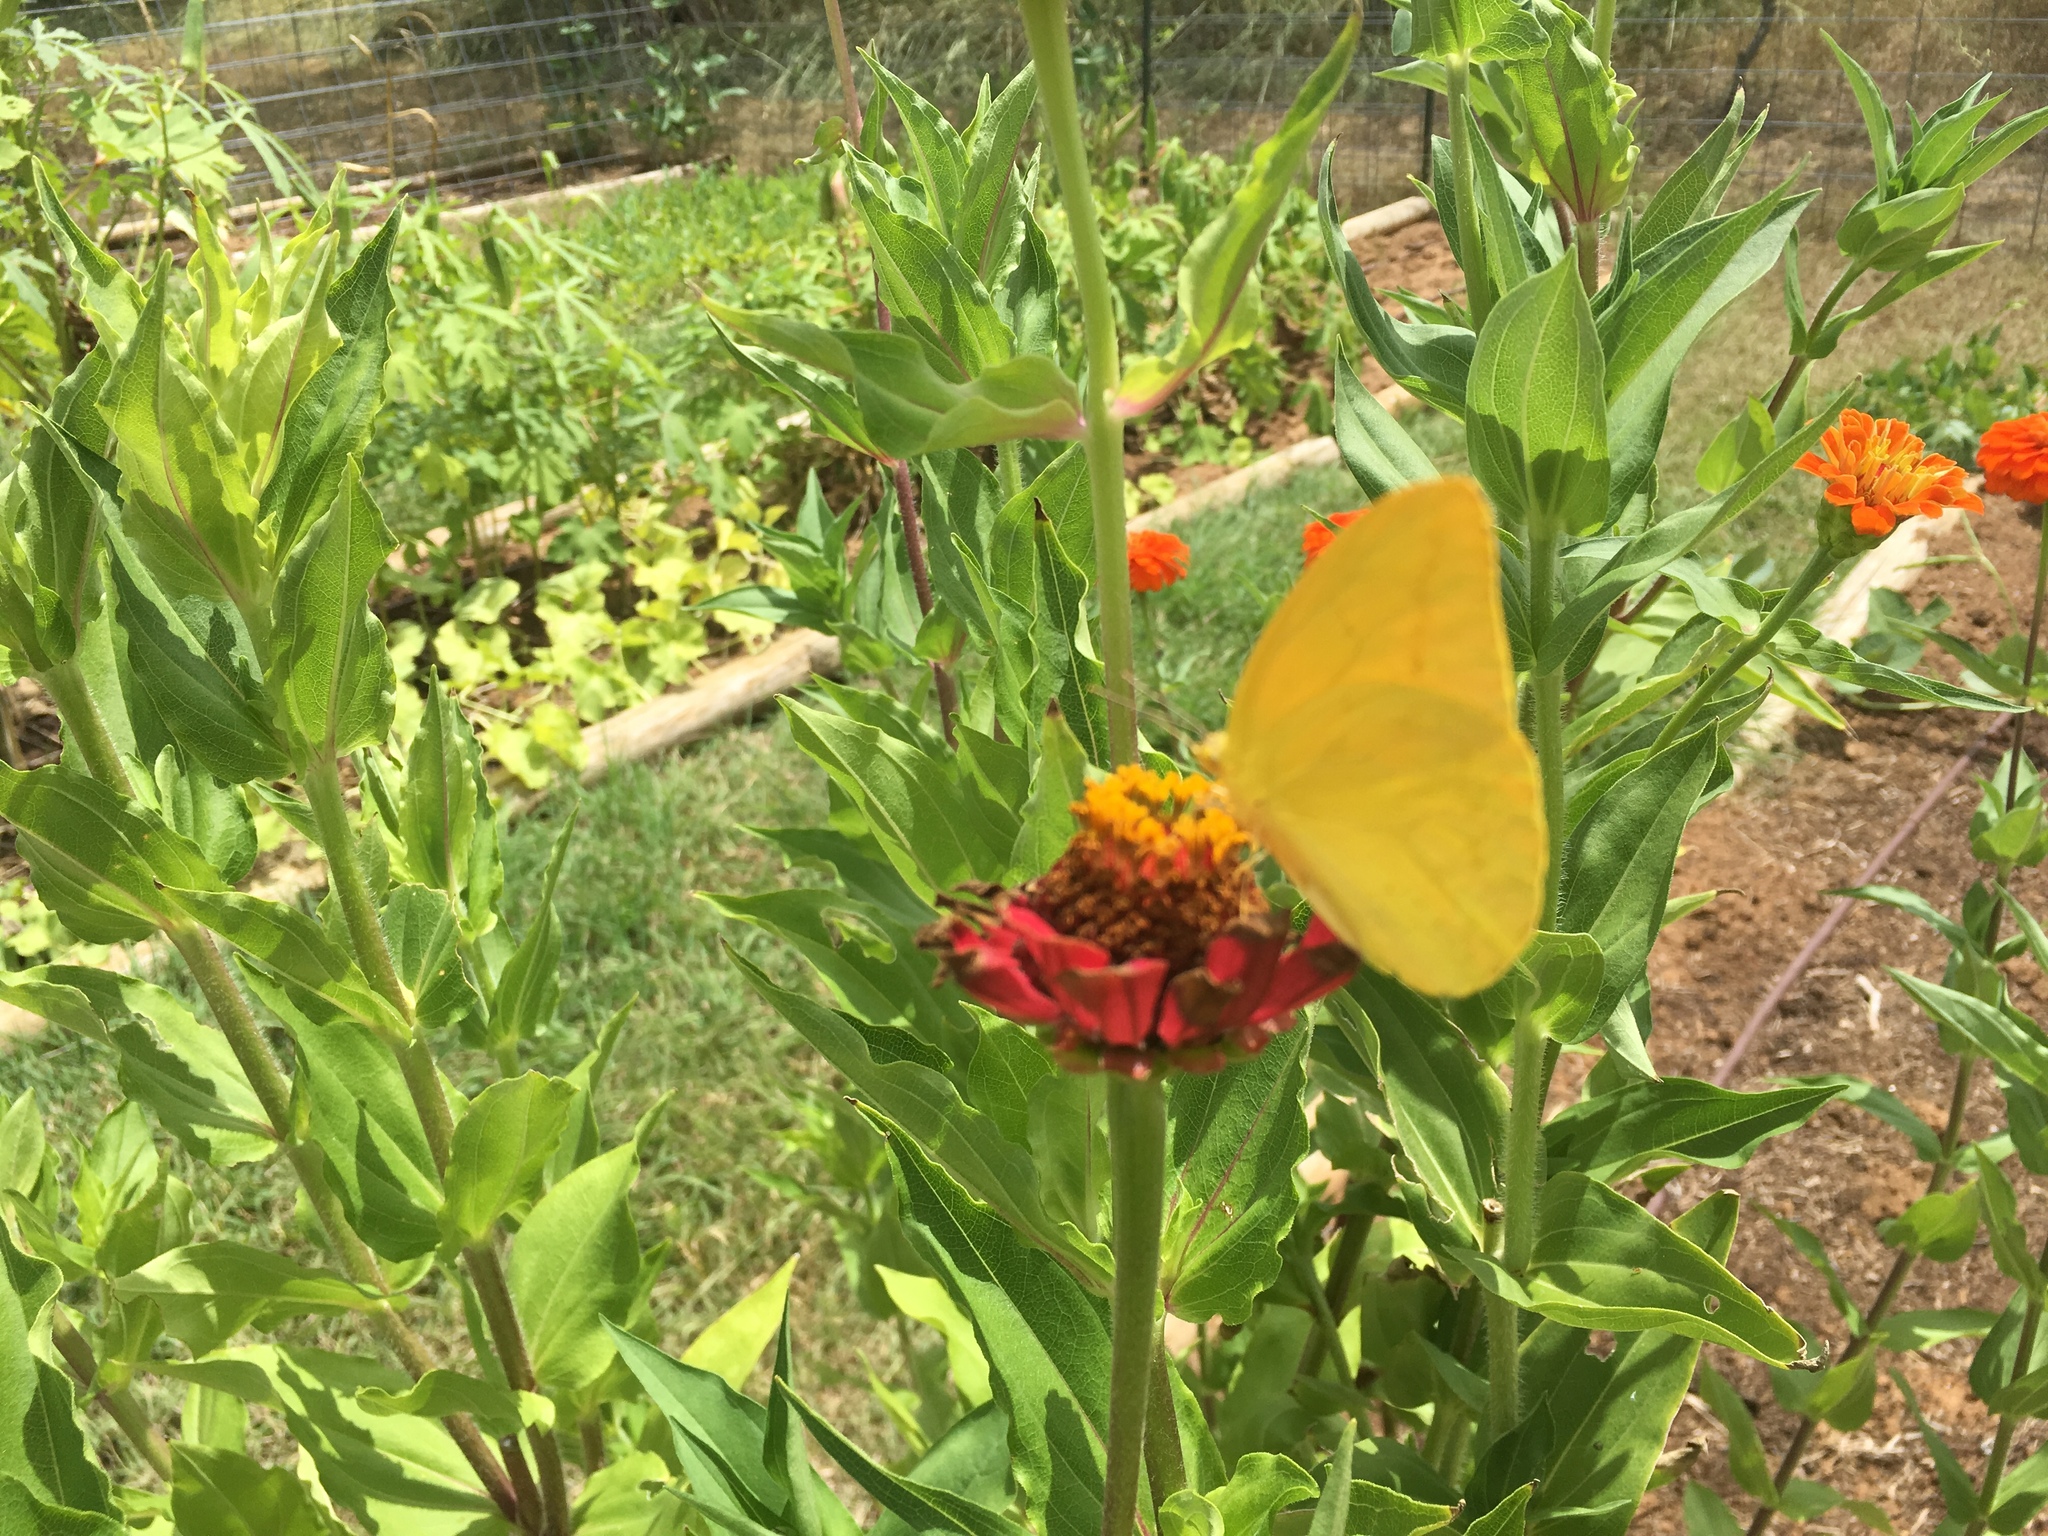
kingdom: Animalia
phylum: Arthropoda
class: Insecta
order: Lepidoptera
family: Pieridae
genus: Phoebis
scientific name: Phoebis agarithe
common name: Large orange sulphur
